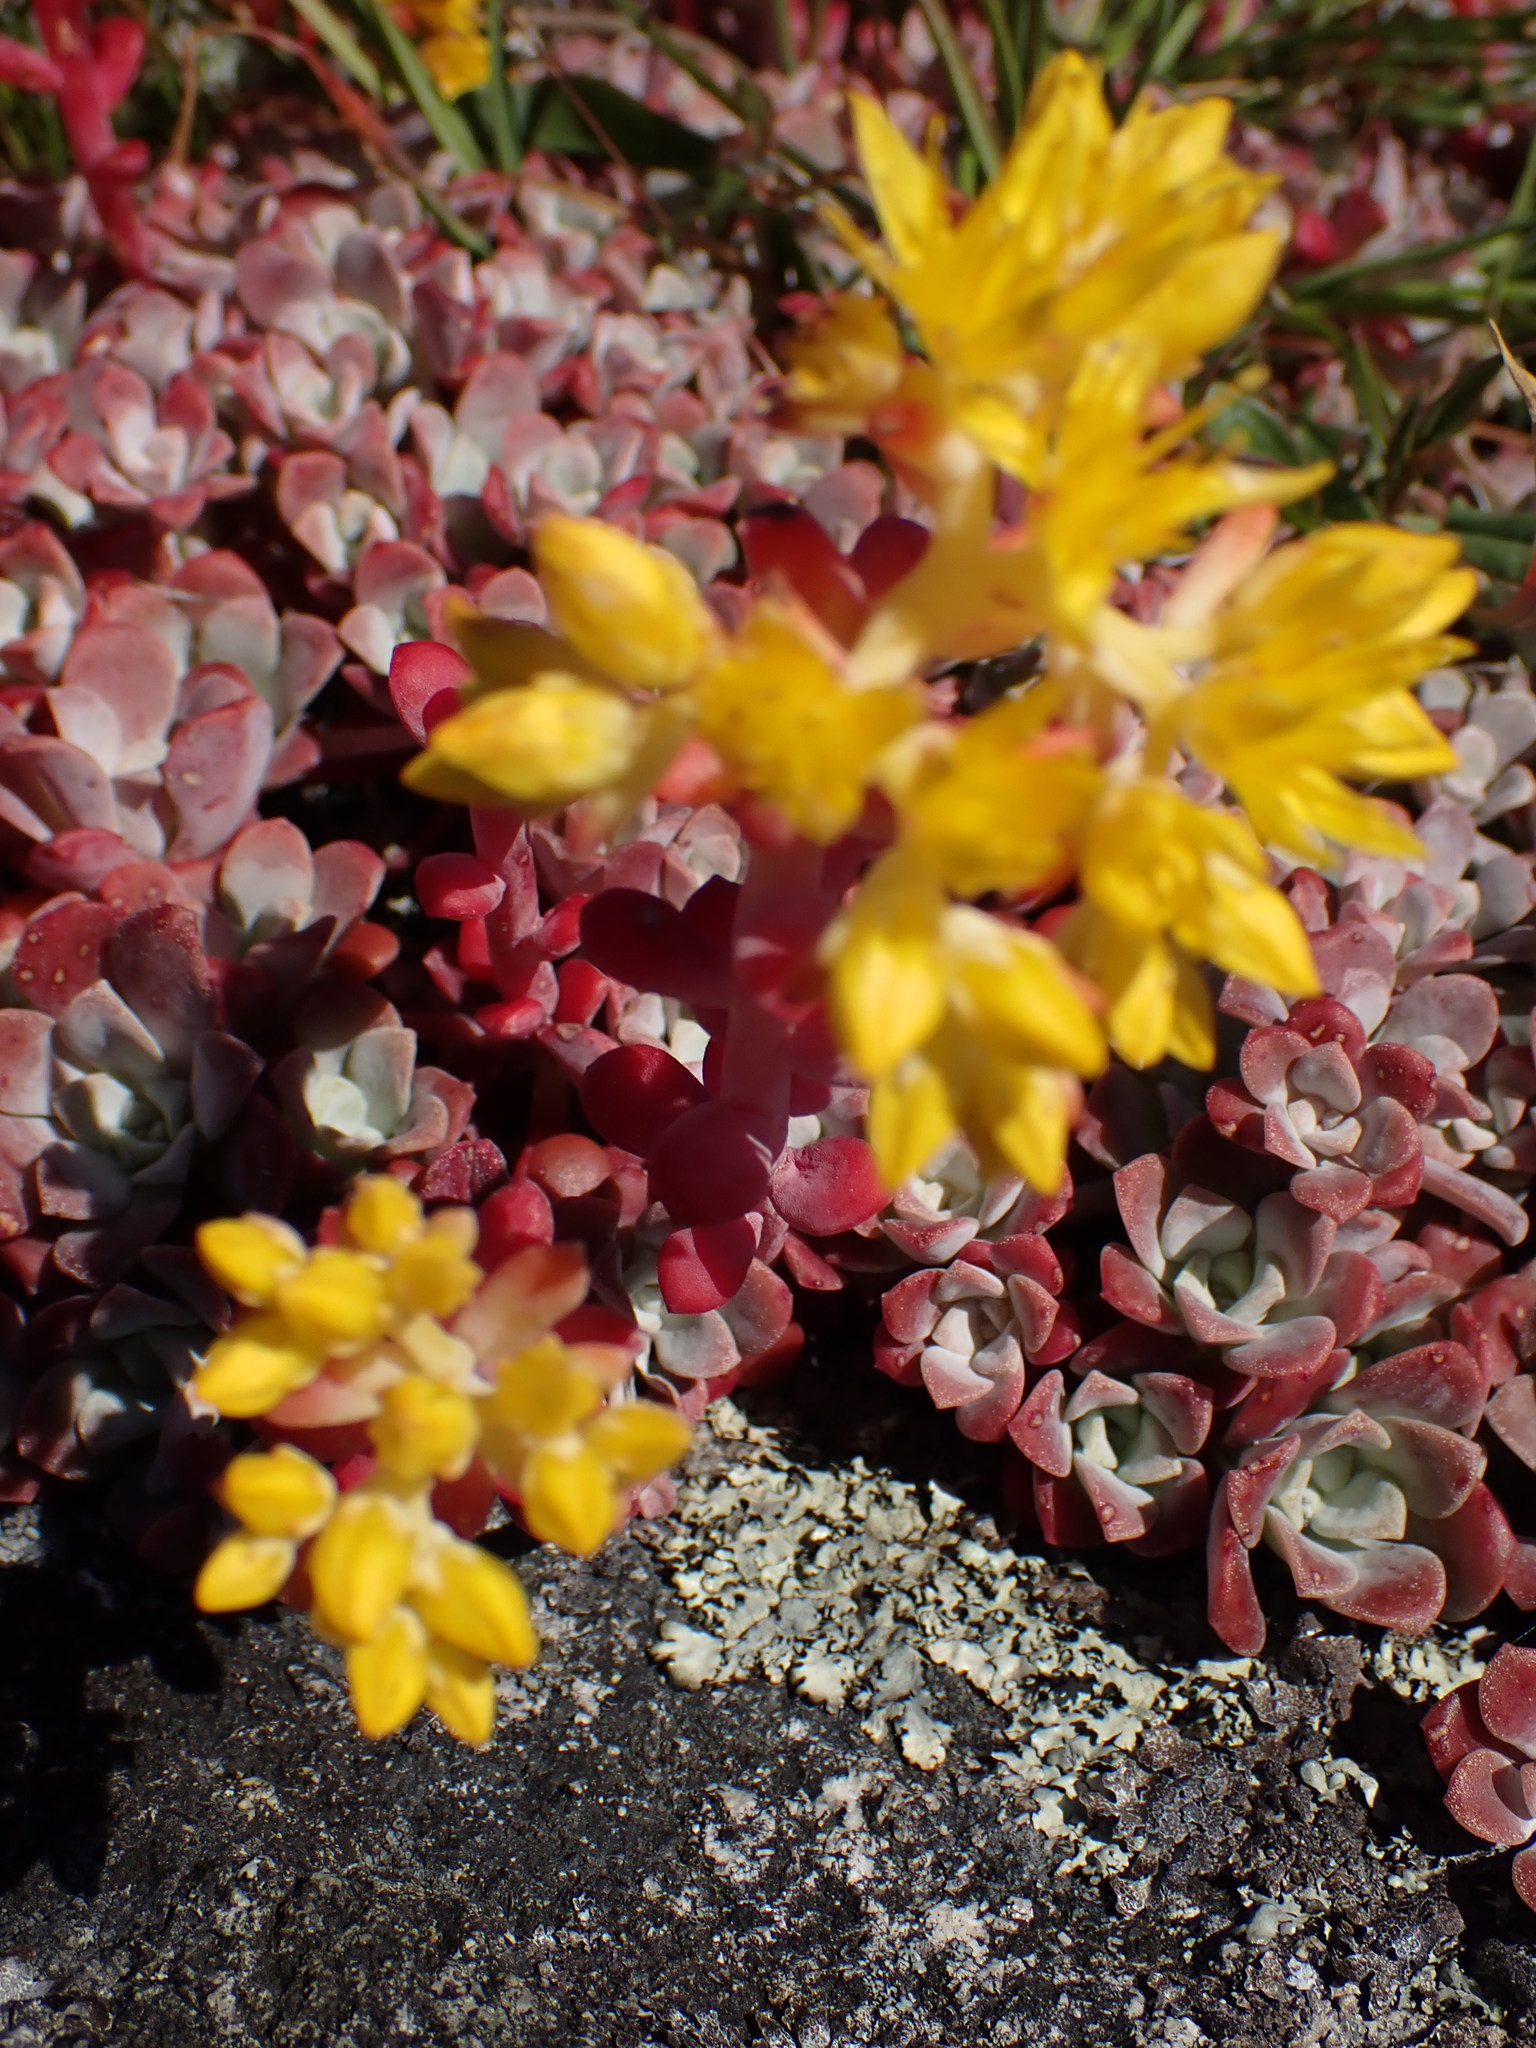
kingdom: Plantae
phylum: Tracheophyta
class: Magnoliopsida
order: Saxifragales
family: Crassulaceae
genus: Sedum
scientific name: Sedum spathulifolium
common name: Colorado stonecrop
